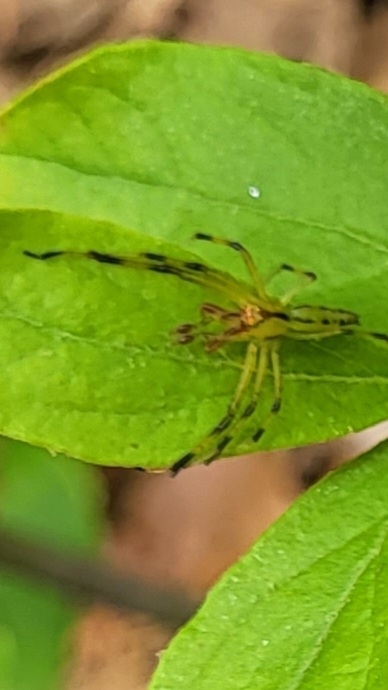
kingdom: Animalia
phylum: Arthropoda
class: Arachnida
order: Araneae
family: Salticidae
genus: Lyssomanes
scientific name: Lyssomanes viridis
